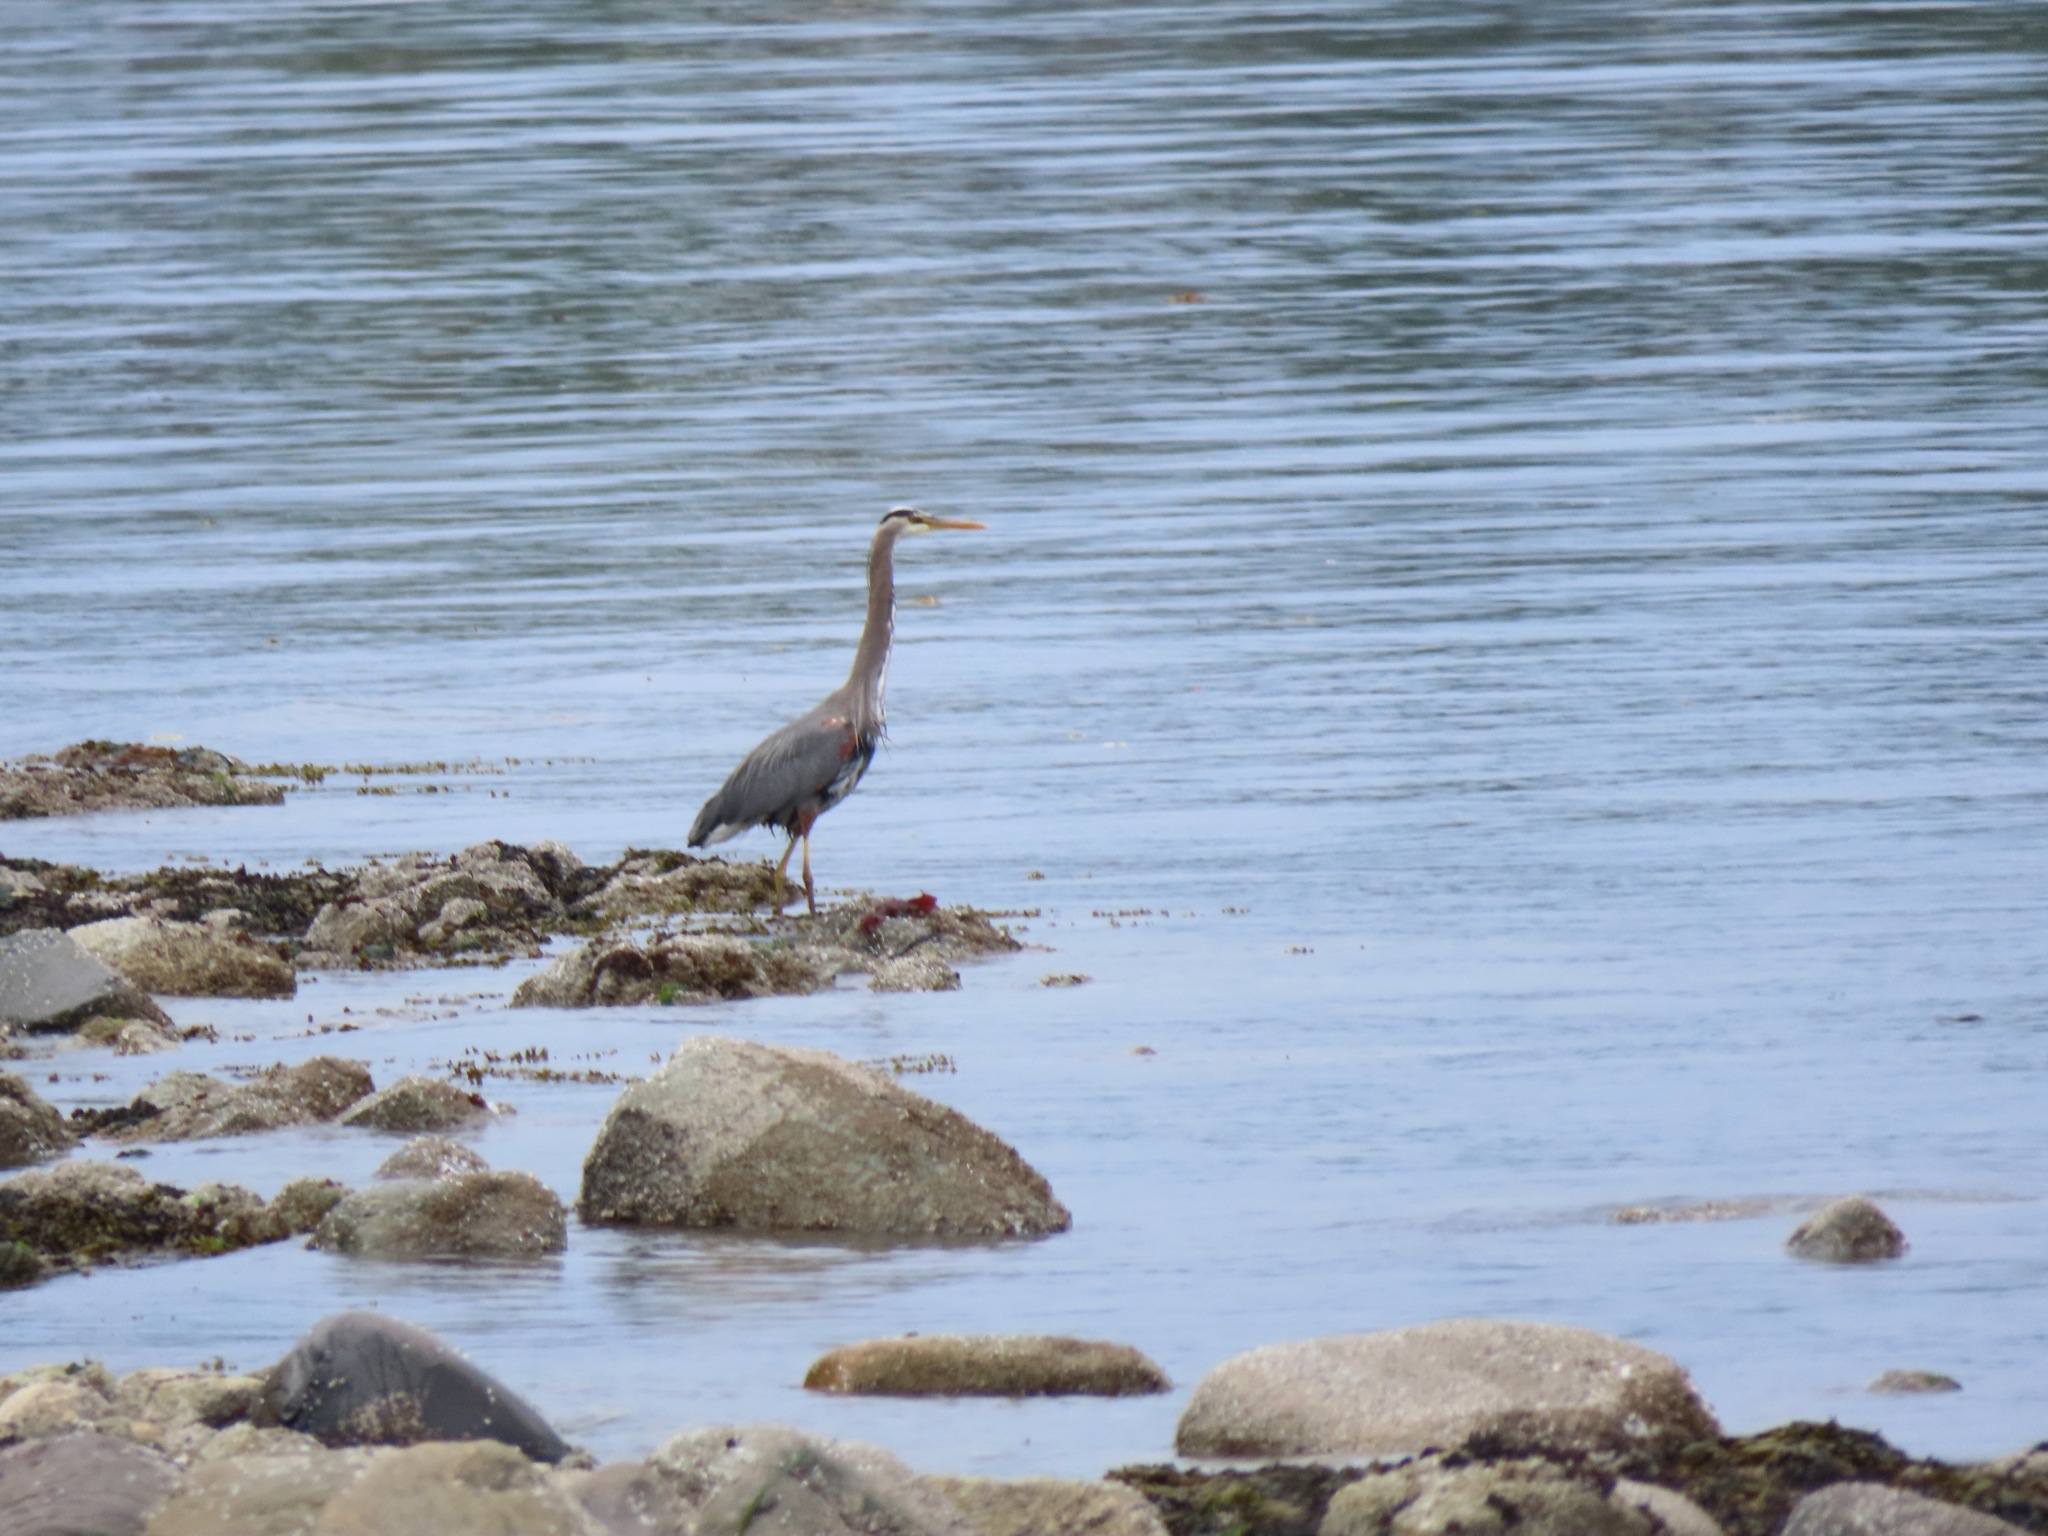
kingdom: Animalia
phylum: Chordata
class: Aves
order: Pelecaniformes
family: Ardeidae
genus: Ardea
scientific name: Ardea herodias
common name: Great blue heron
